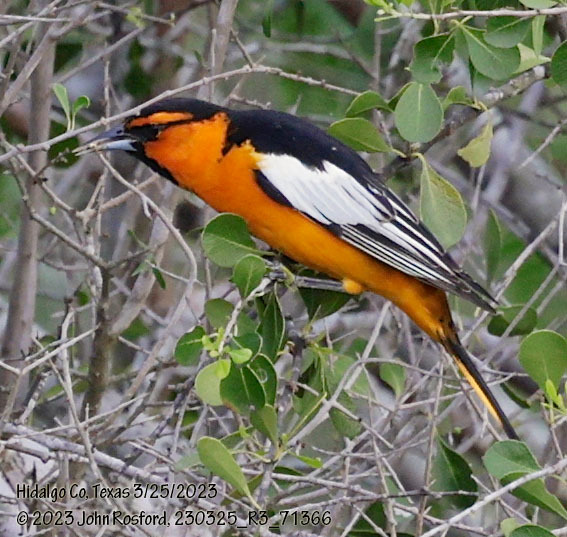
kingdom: Animalia
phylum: Chordata
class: Aves
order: Passeriformes
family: Icteridae
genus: Icterus
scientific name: Icterus bullockii
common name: Bullock's oriole
